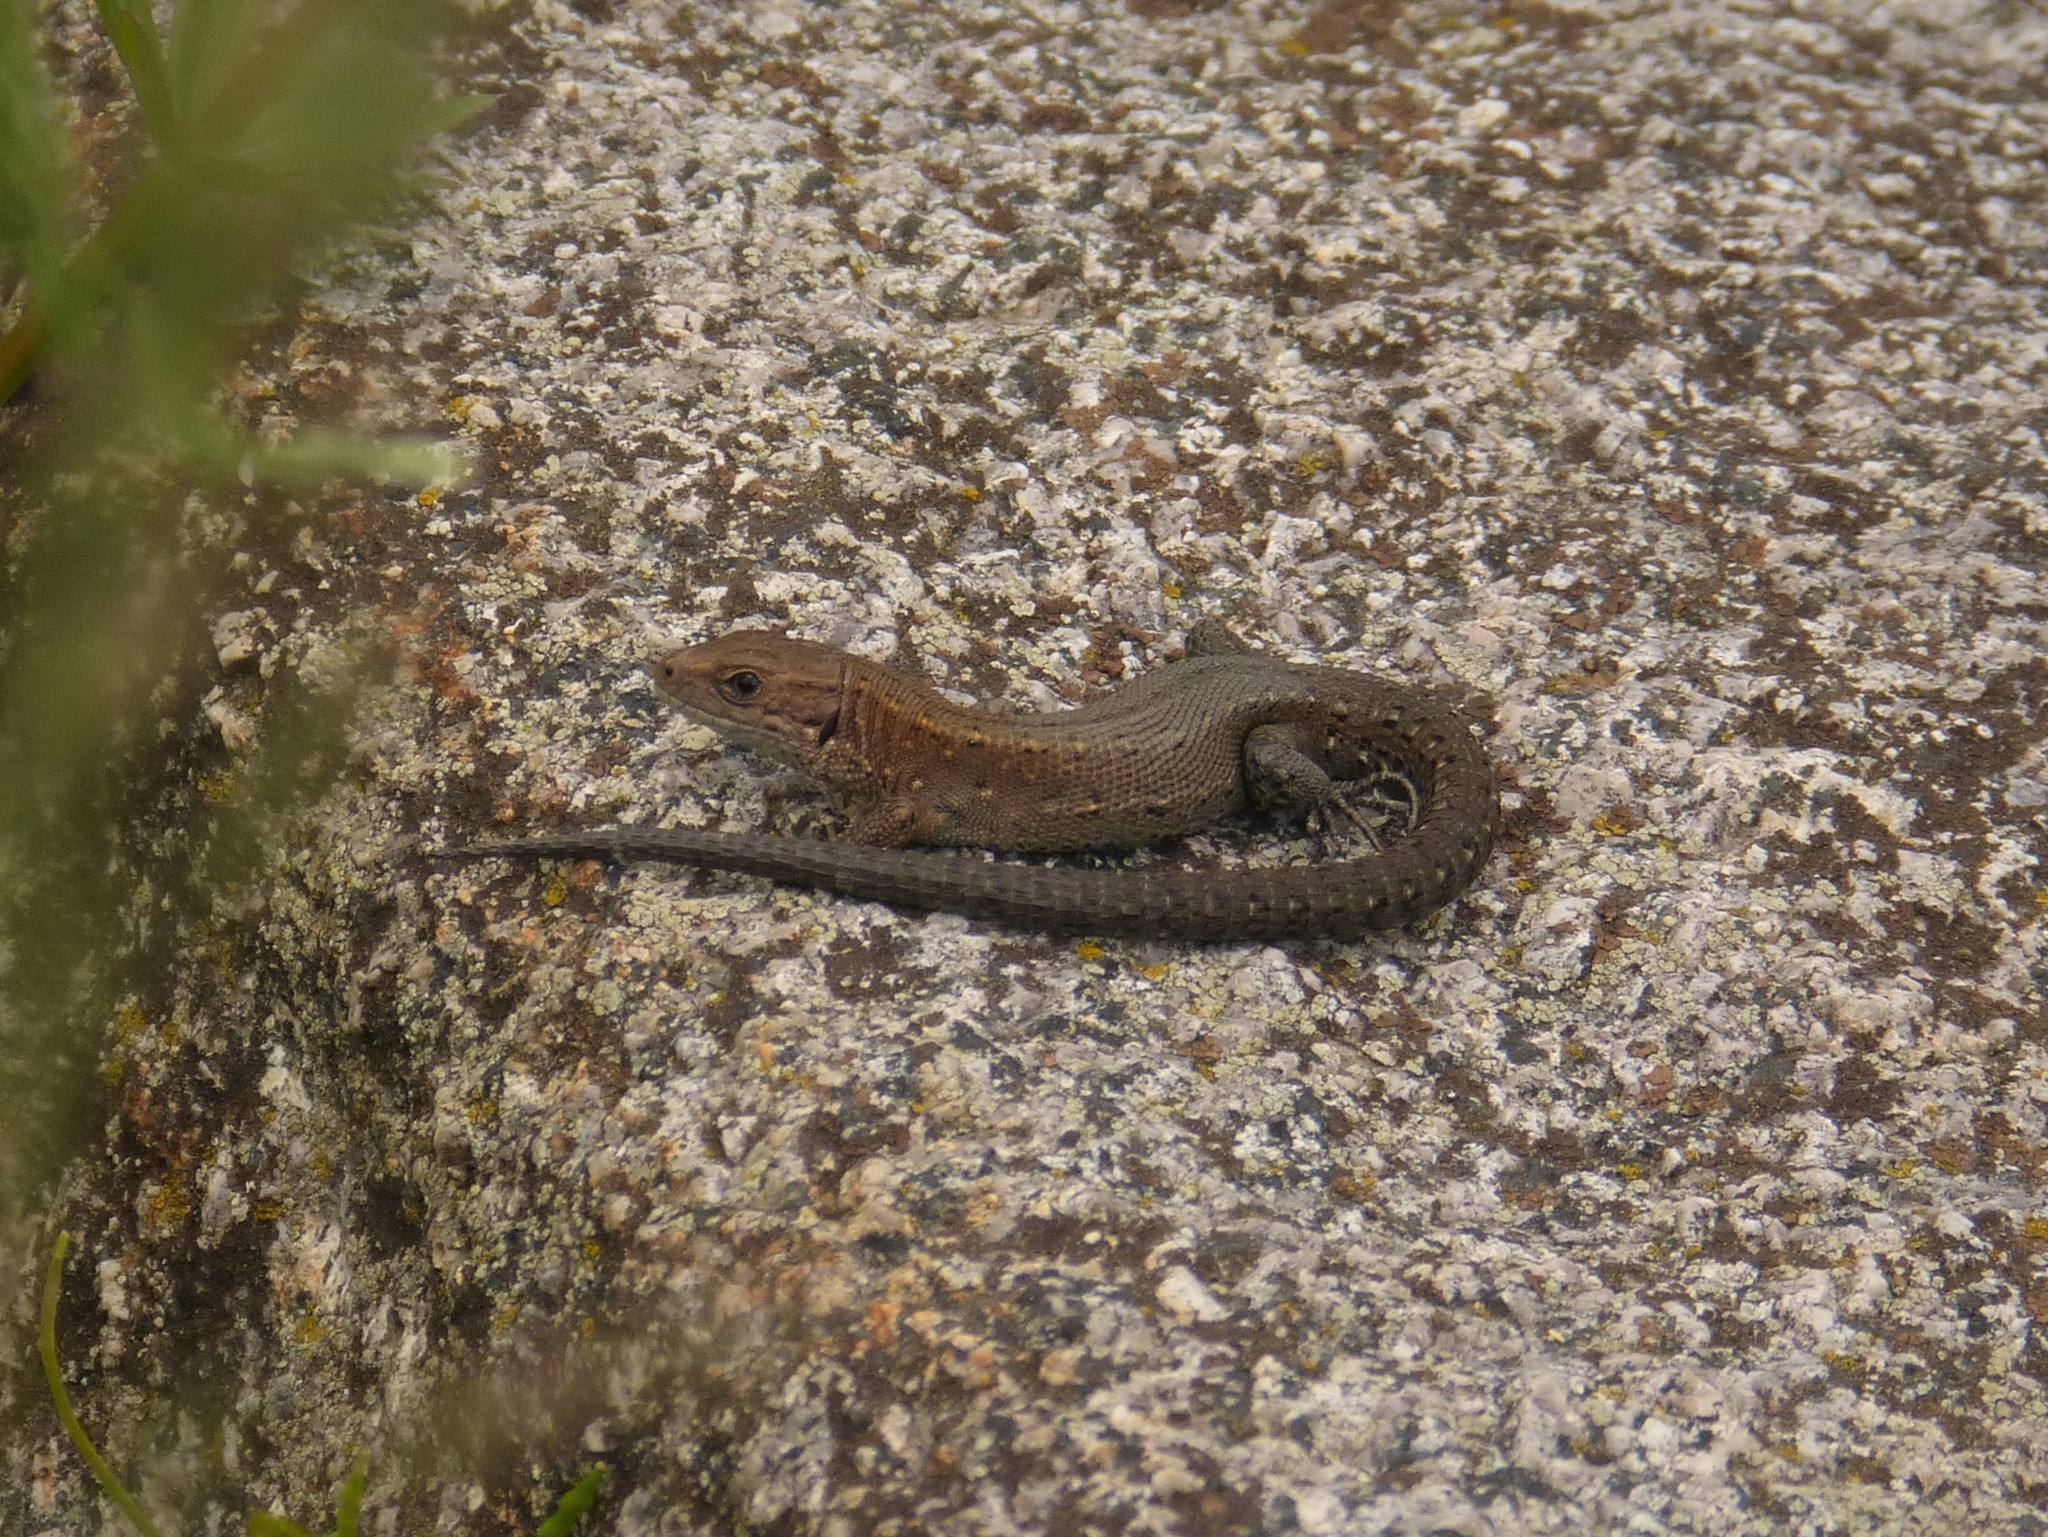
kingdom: Animalia
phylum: Chordata
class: Squamata
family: Lacertidae
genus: Zootoca
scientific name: Zootoca
